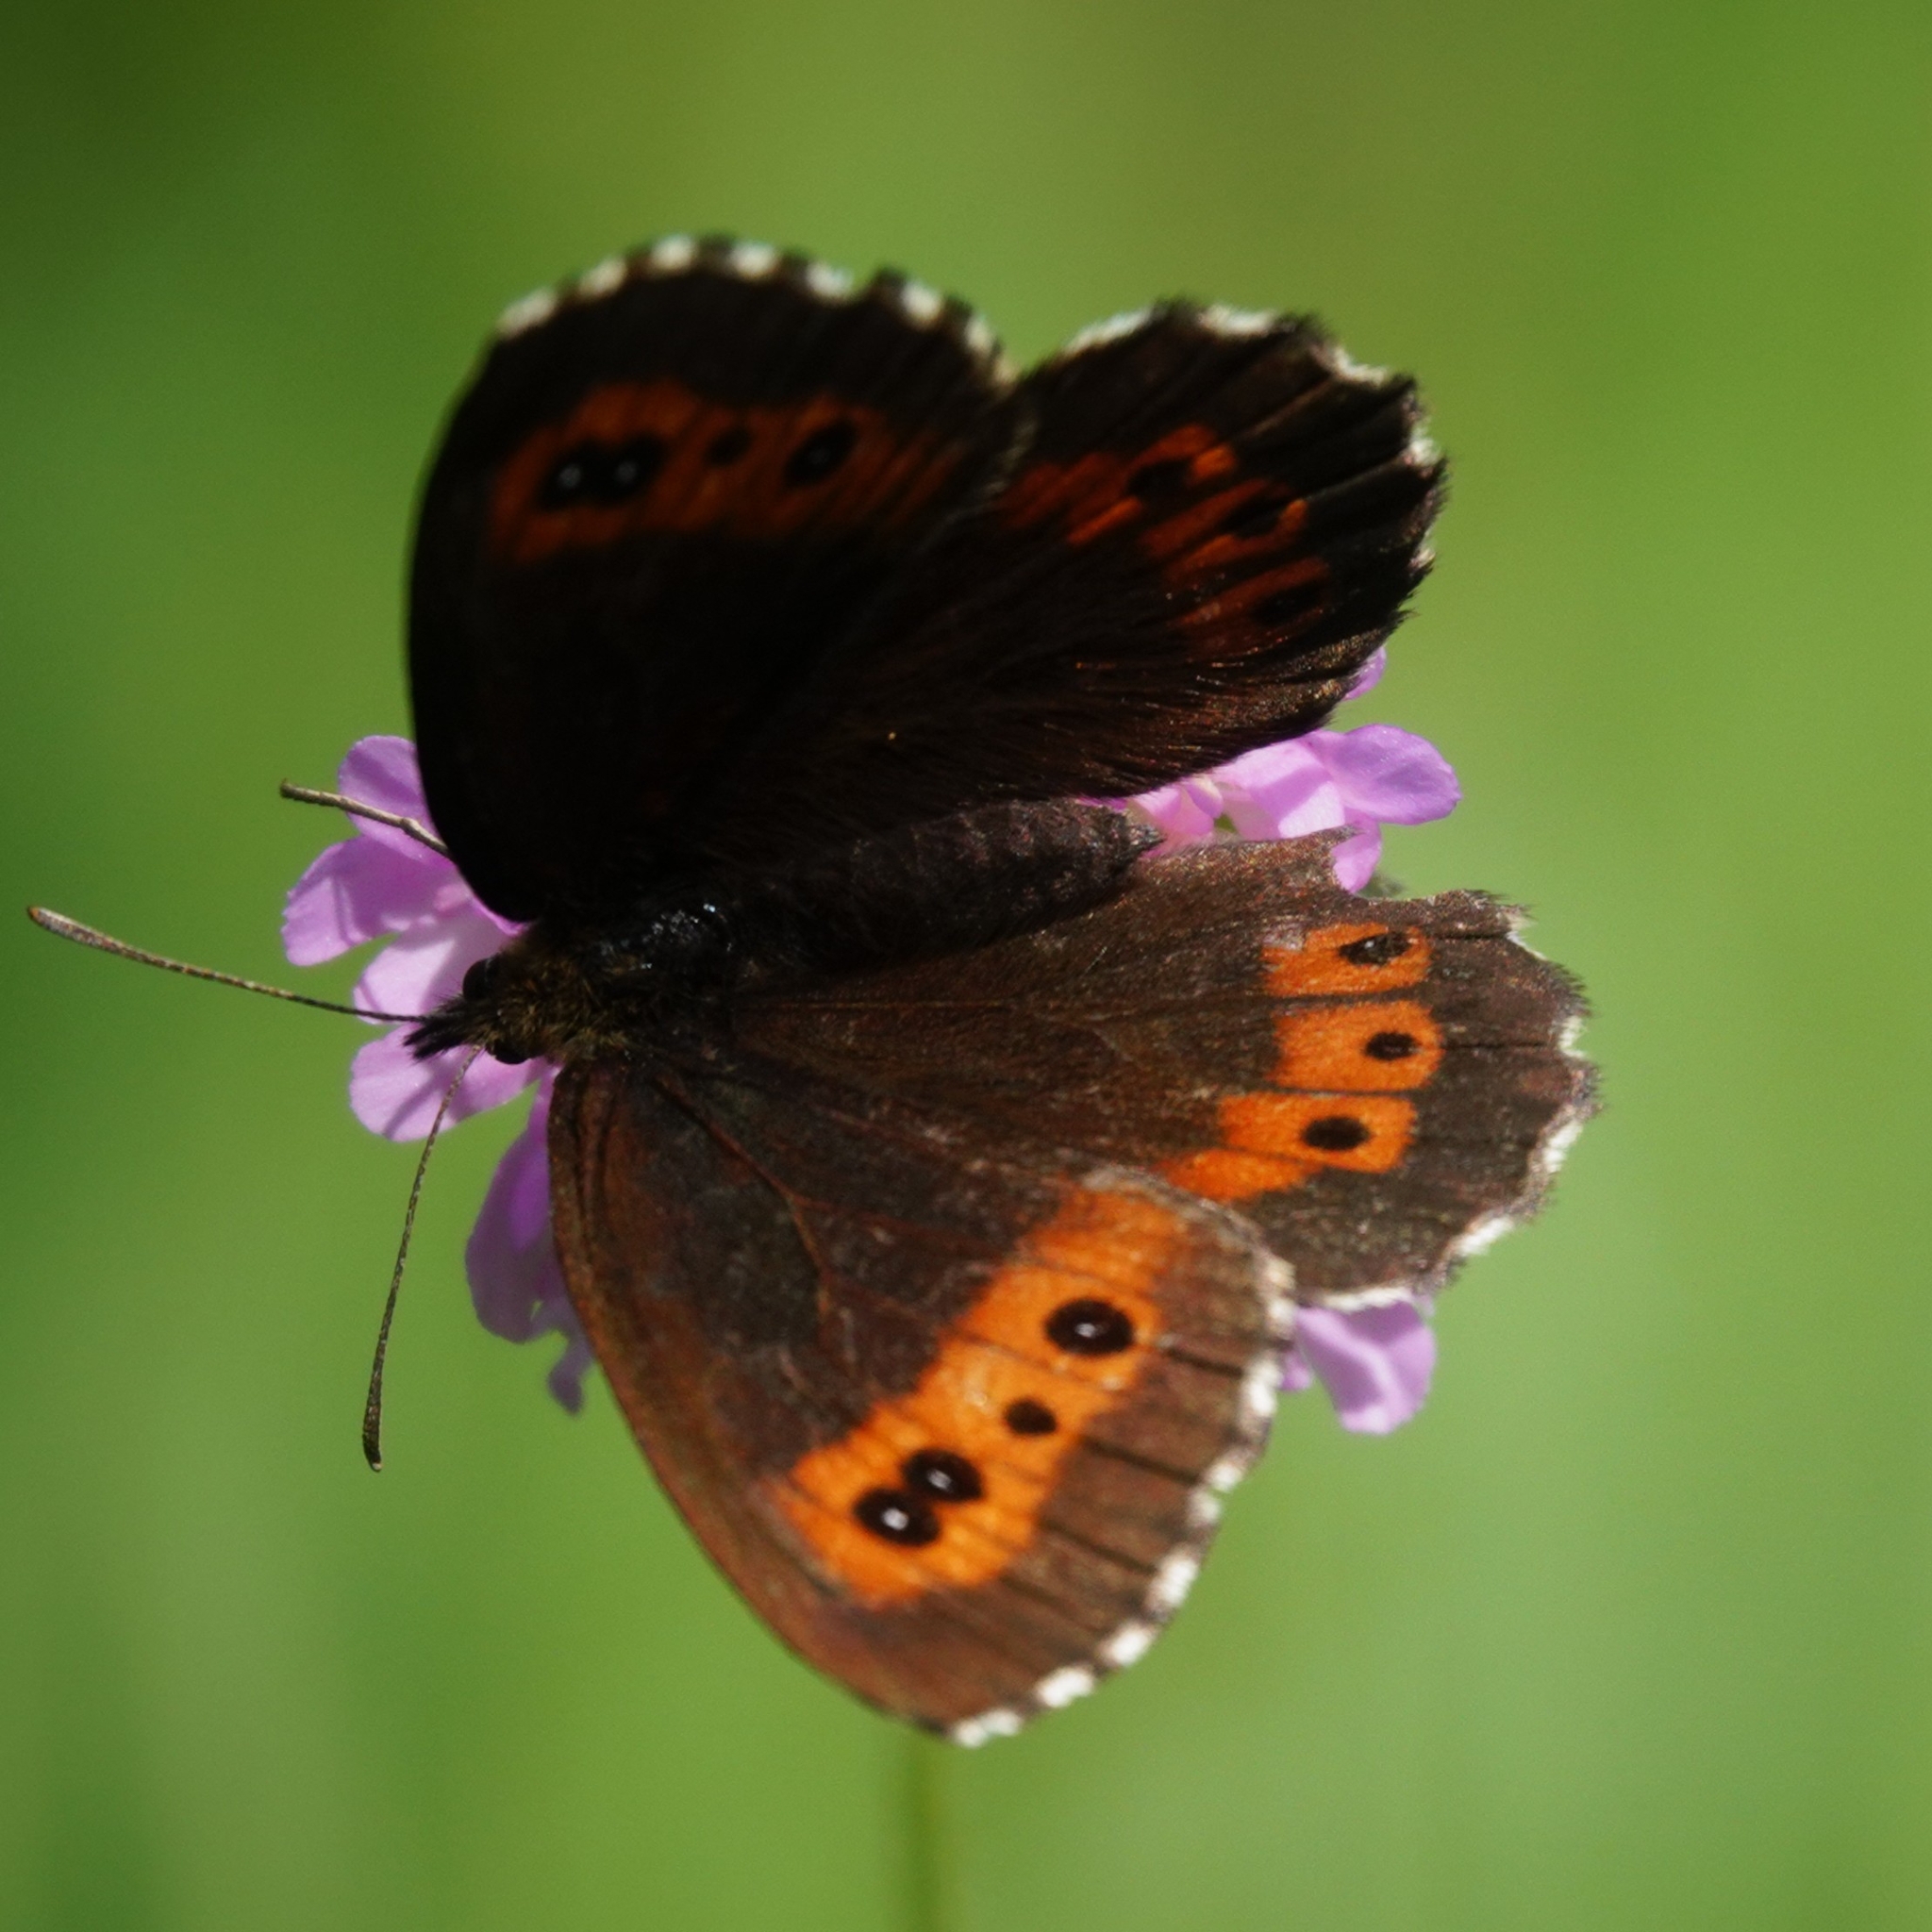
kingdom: Animalia
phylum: Arthropoda
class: Insecta
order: Lepidoptera
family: Nymphalidae
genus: Erebia
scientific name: Erebia ligea
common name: Arran brown
